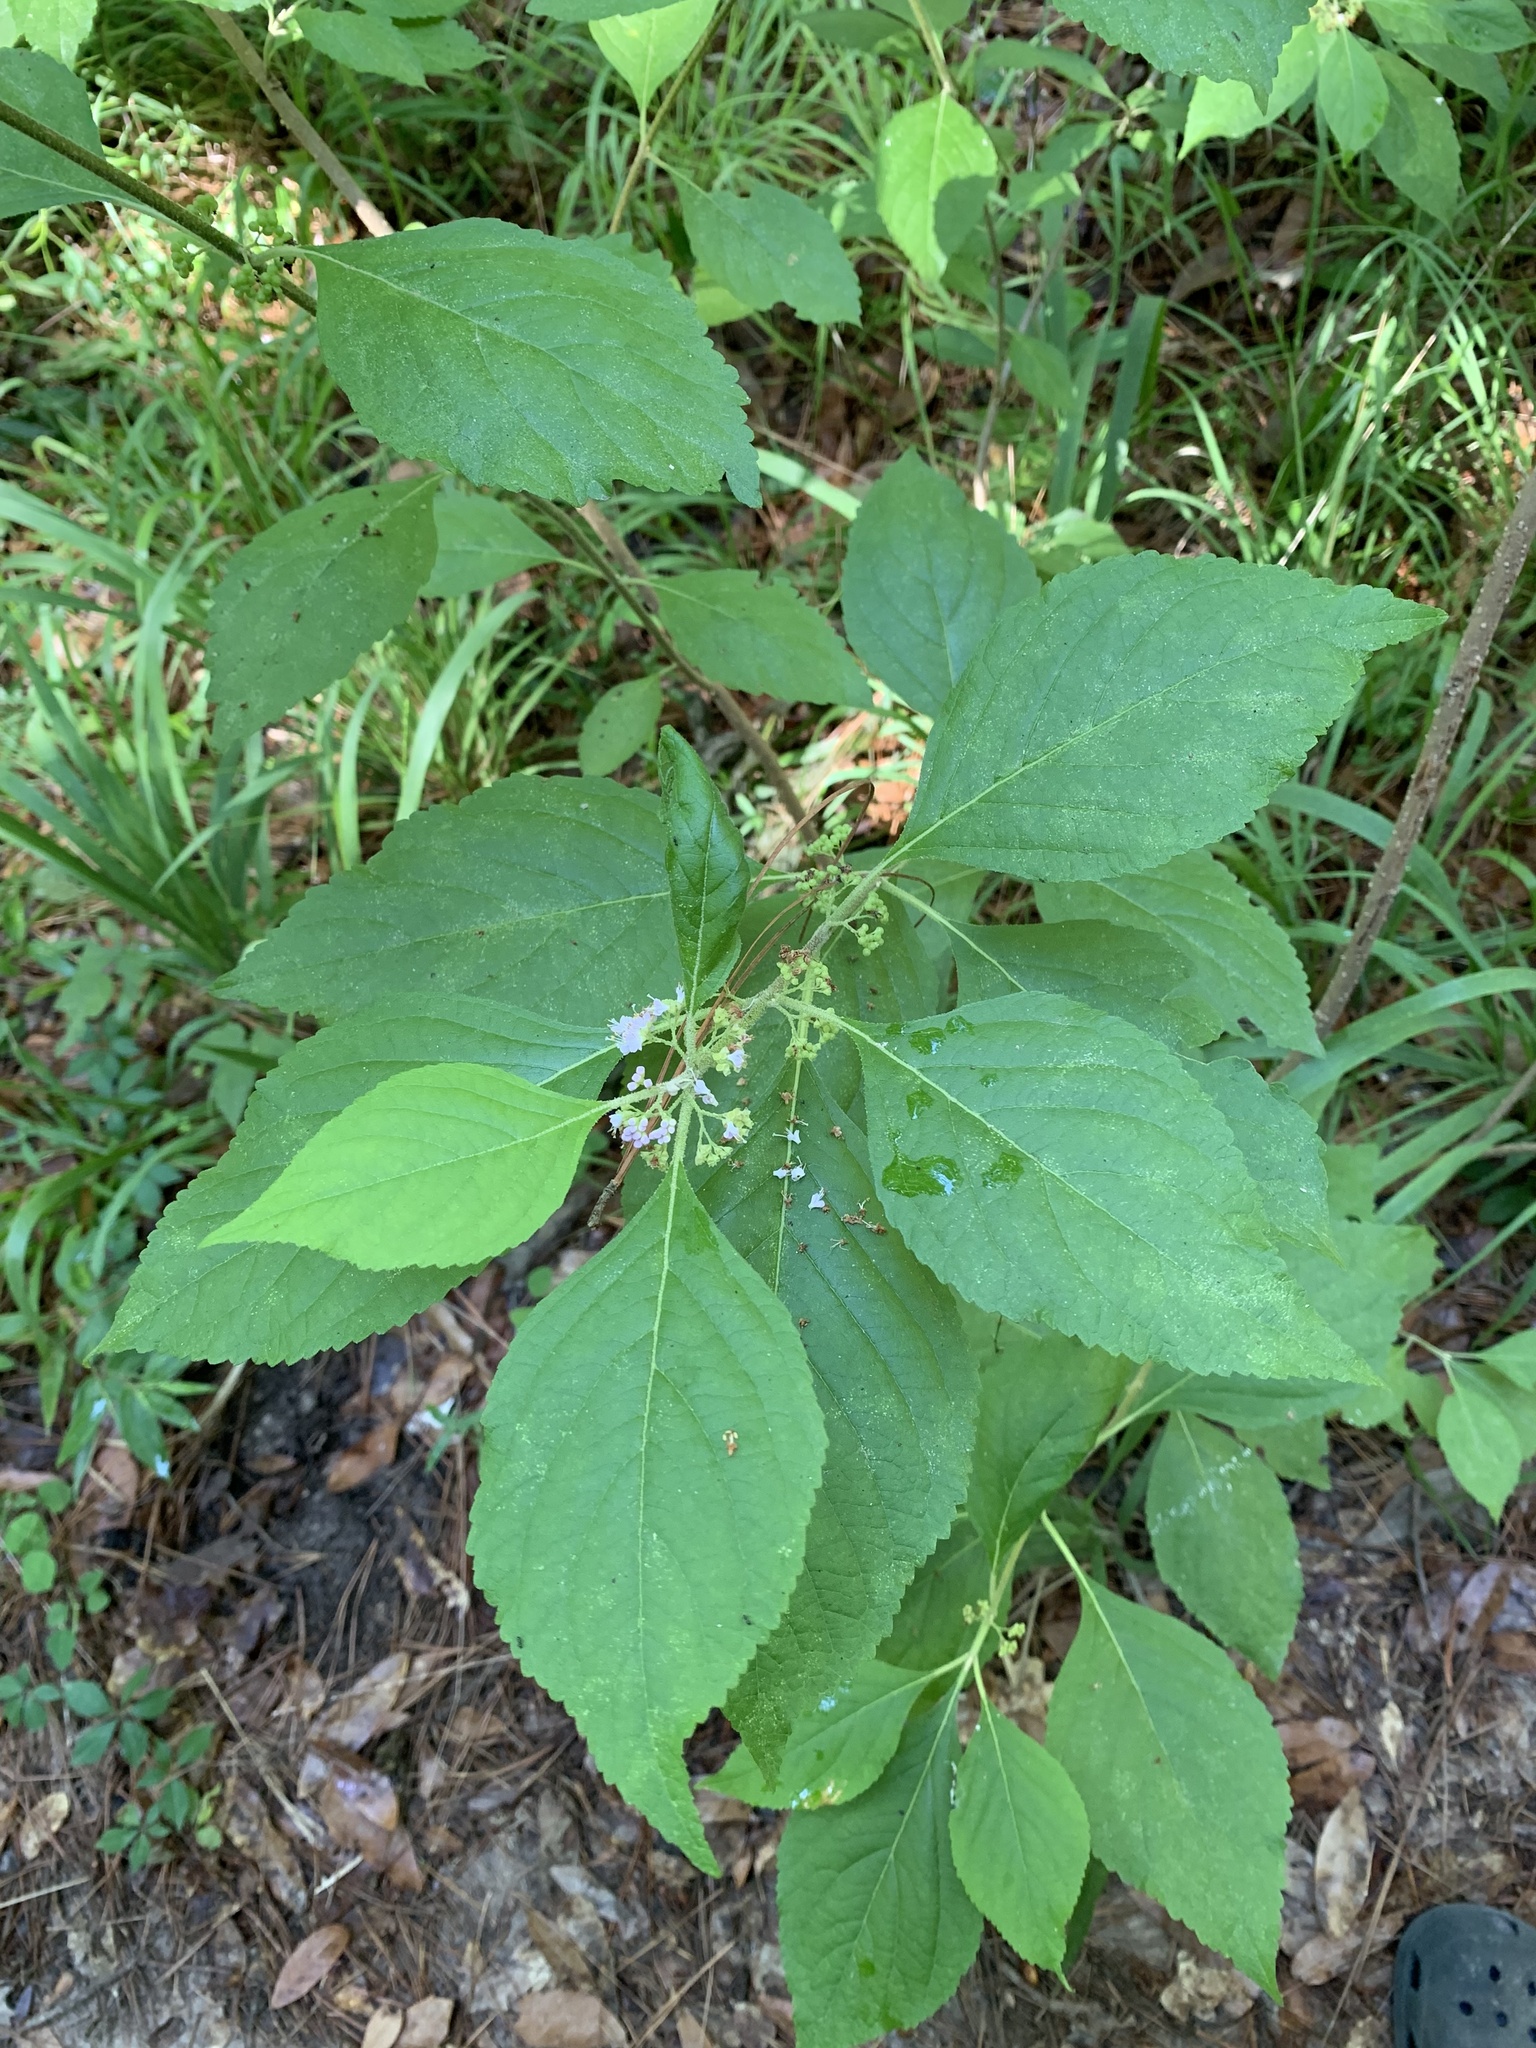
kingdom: Plantae
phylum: Tracheophyta
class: Magnoliopsida
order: Lamiales
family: Lamiaceae
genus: Callicarpa
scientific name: Callicarpa americana
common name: American beautyberry
